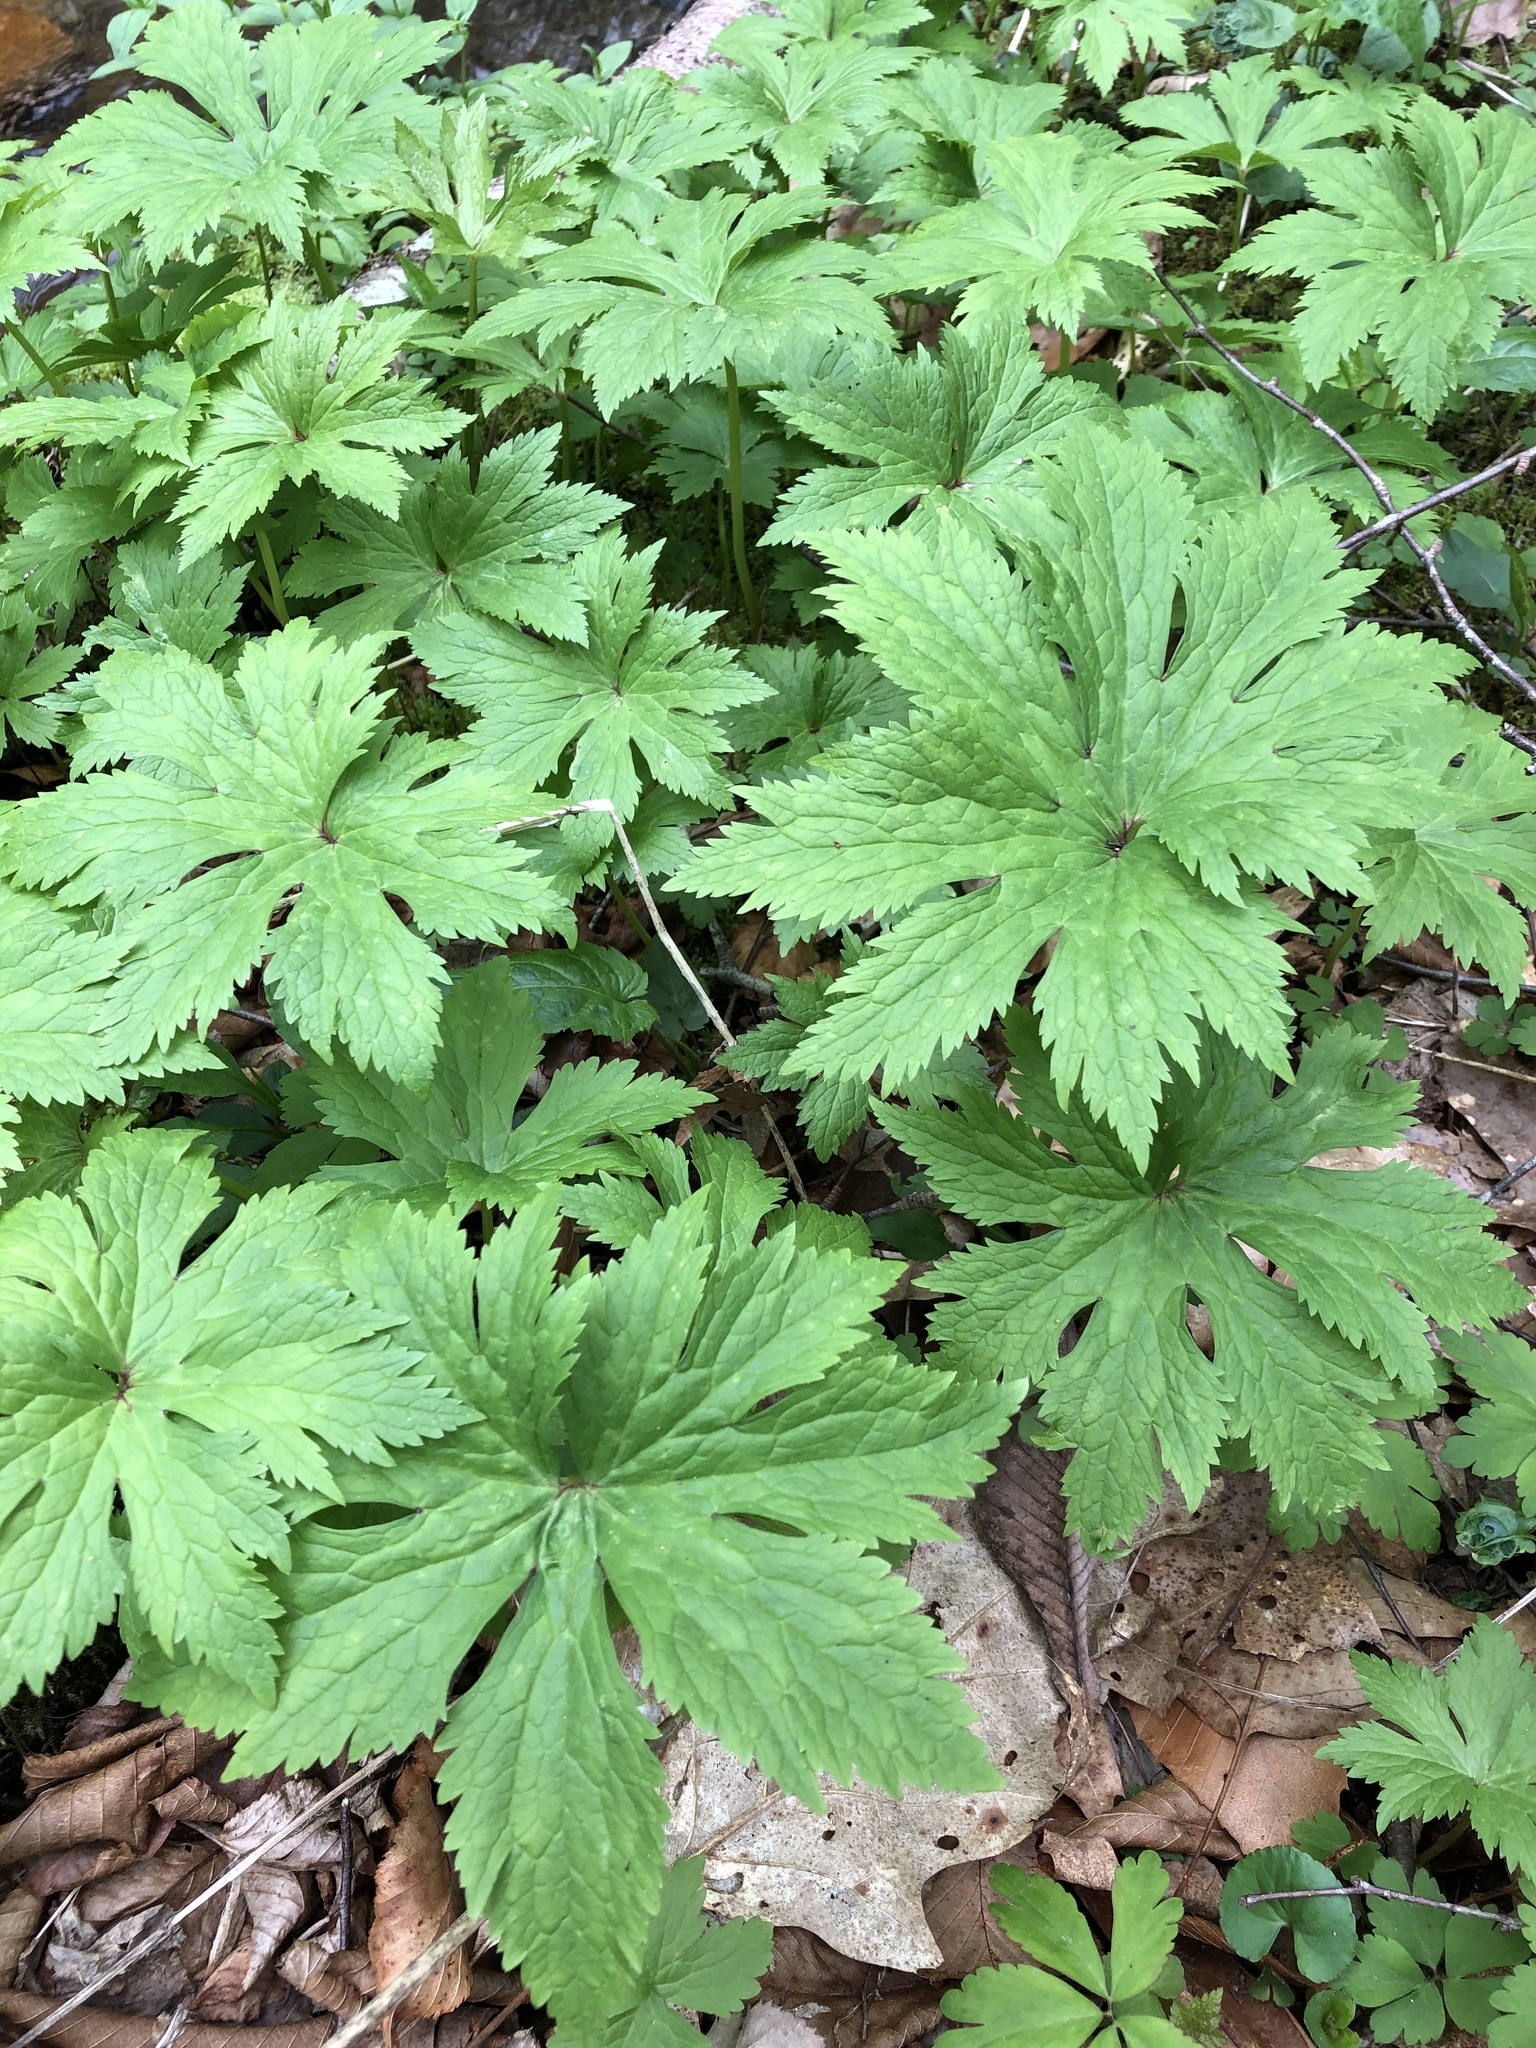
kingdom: Plantae
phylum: Tracheophyta
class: Magnoliopsida
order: Ranunculales
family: Ranunculaceae
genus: Trautvetteria
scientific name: Trautvetteria carolinensis
